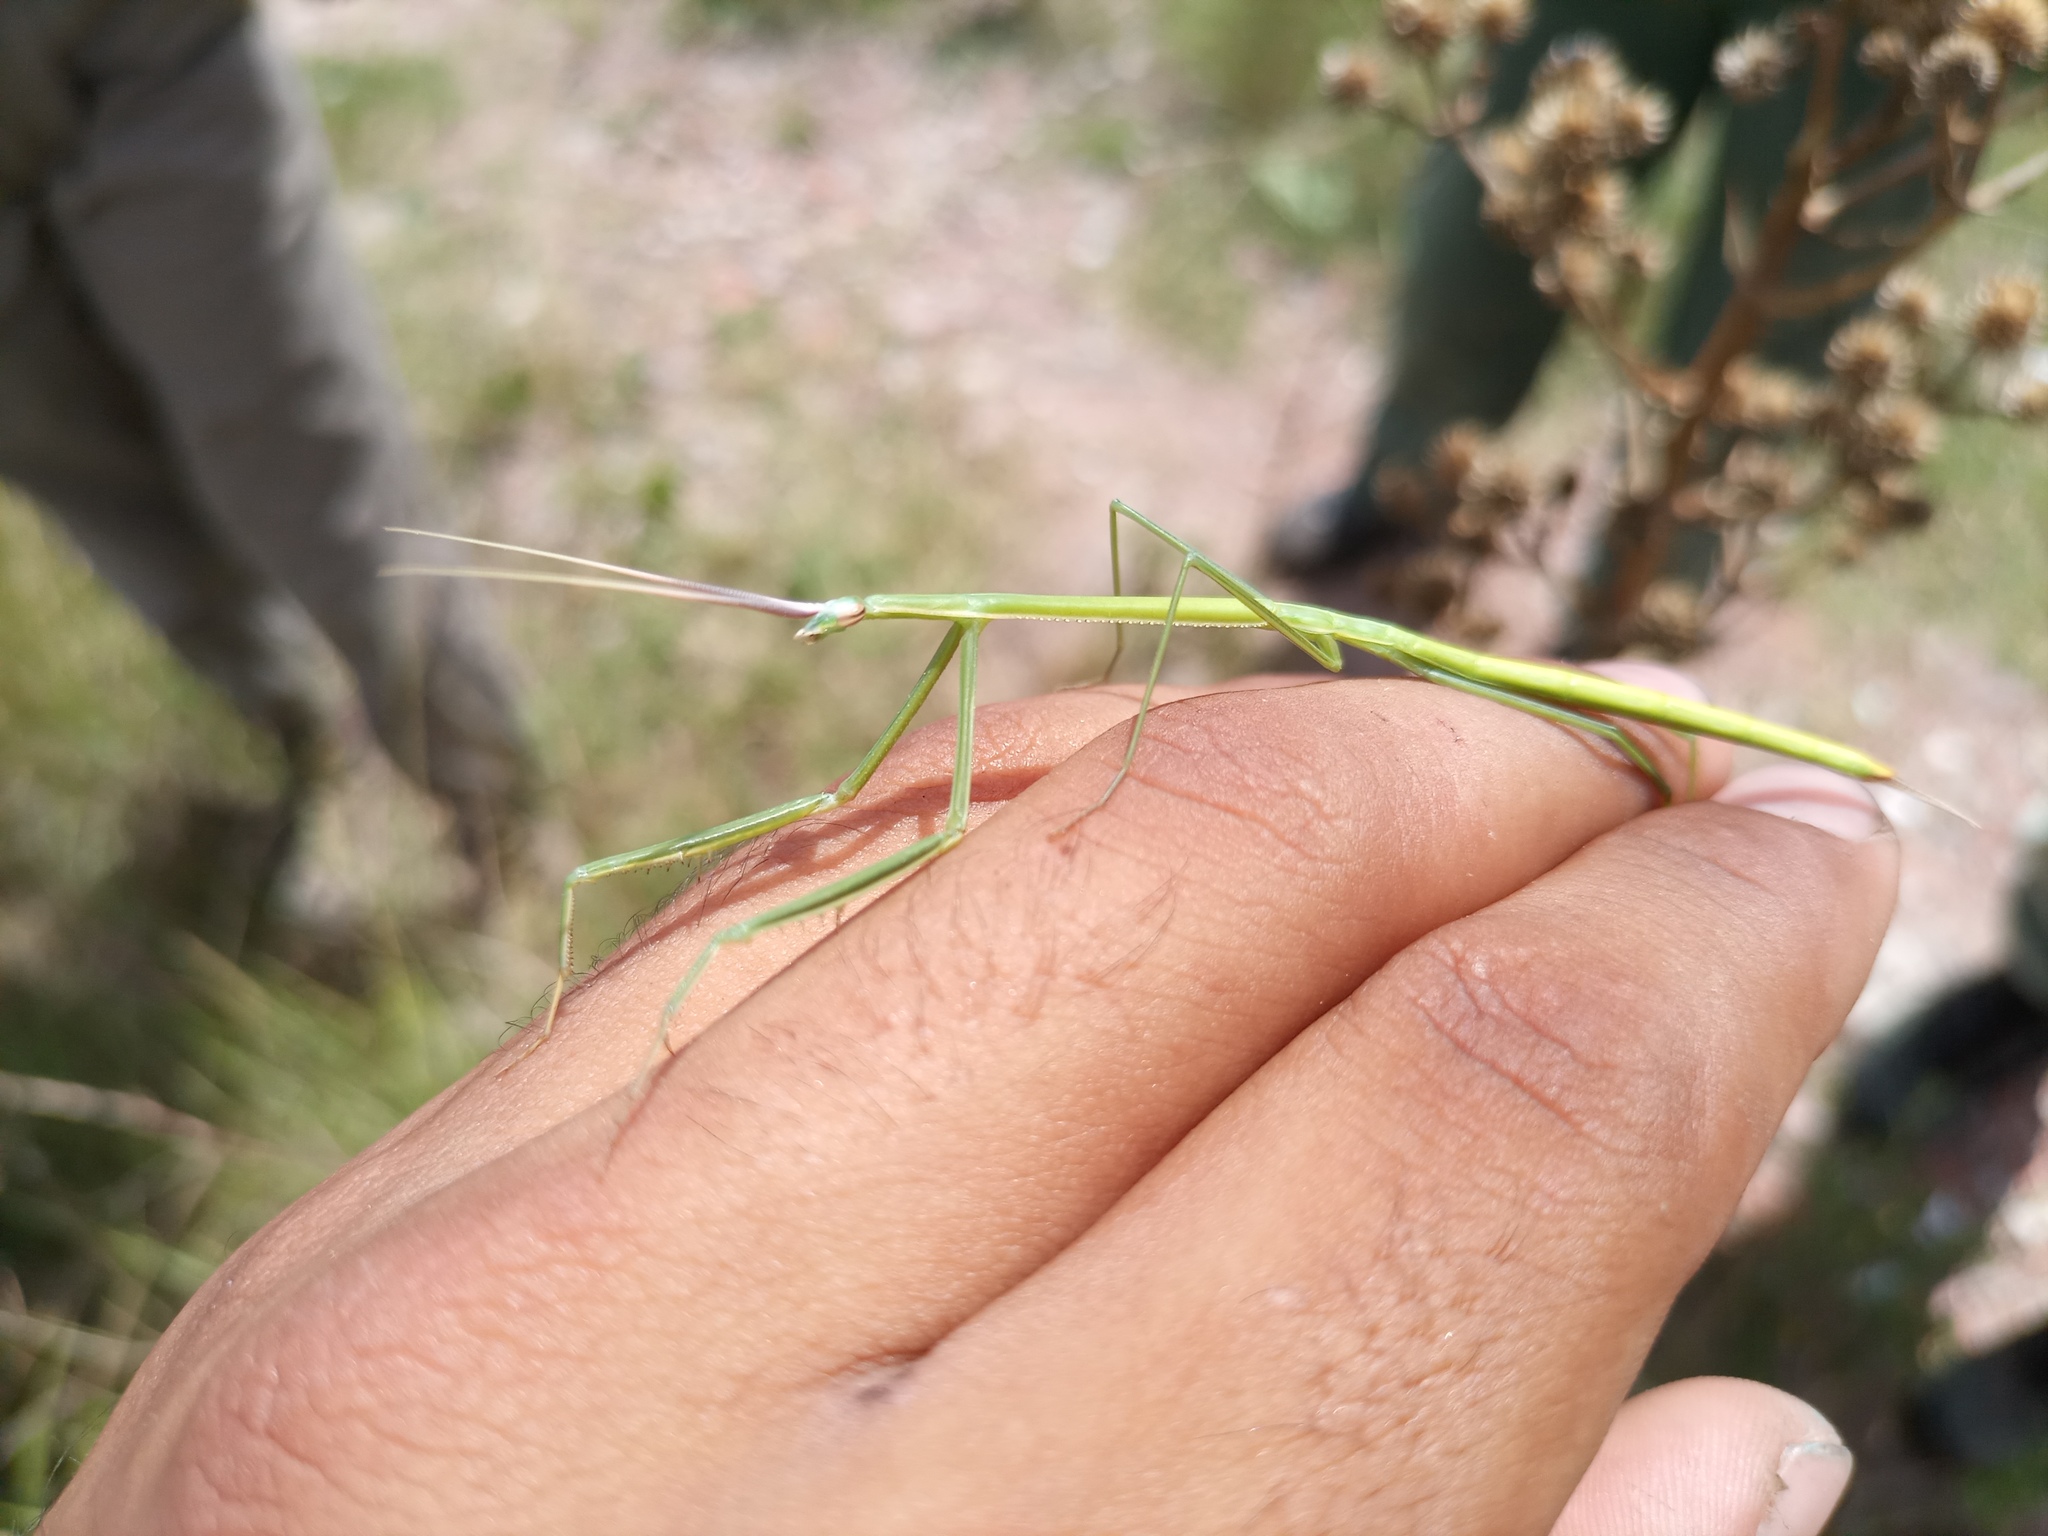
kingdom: Animalia
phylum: Arthropoda
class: Insecta
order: Mantodea
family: Coptopterygidae
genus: Brunneria
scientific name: Brunneria subaptera
